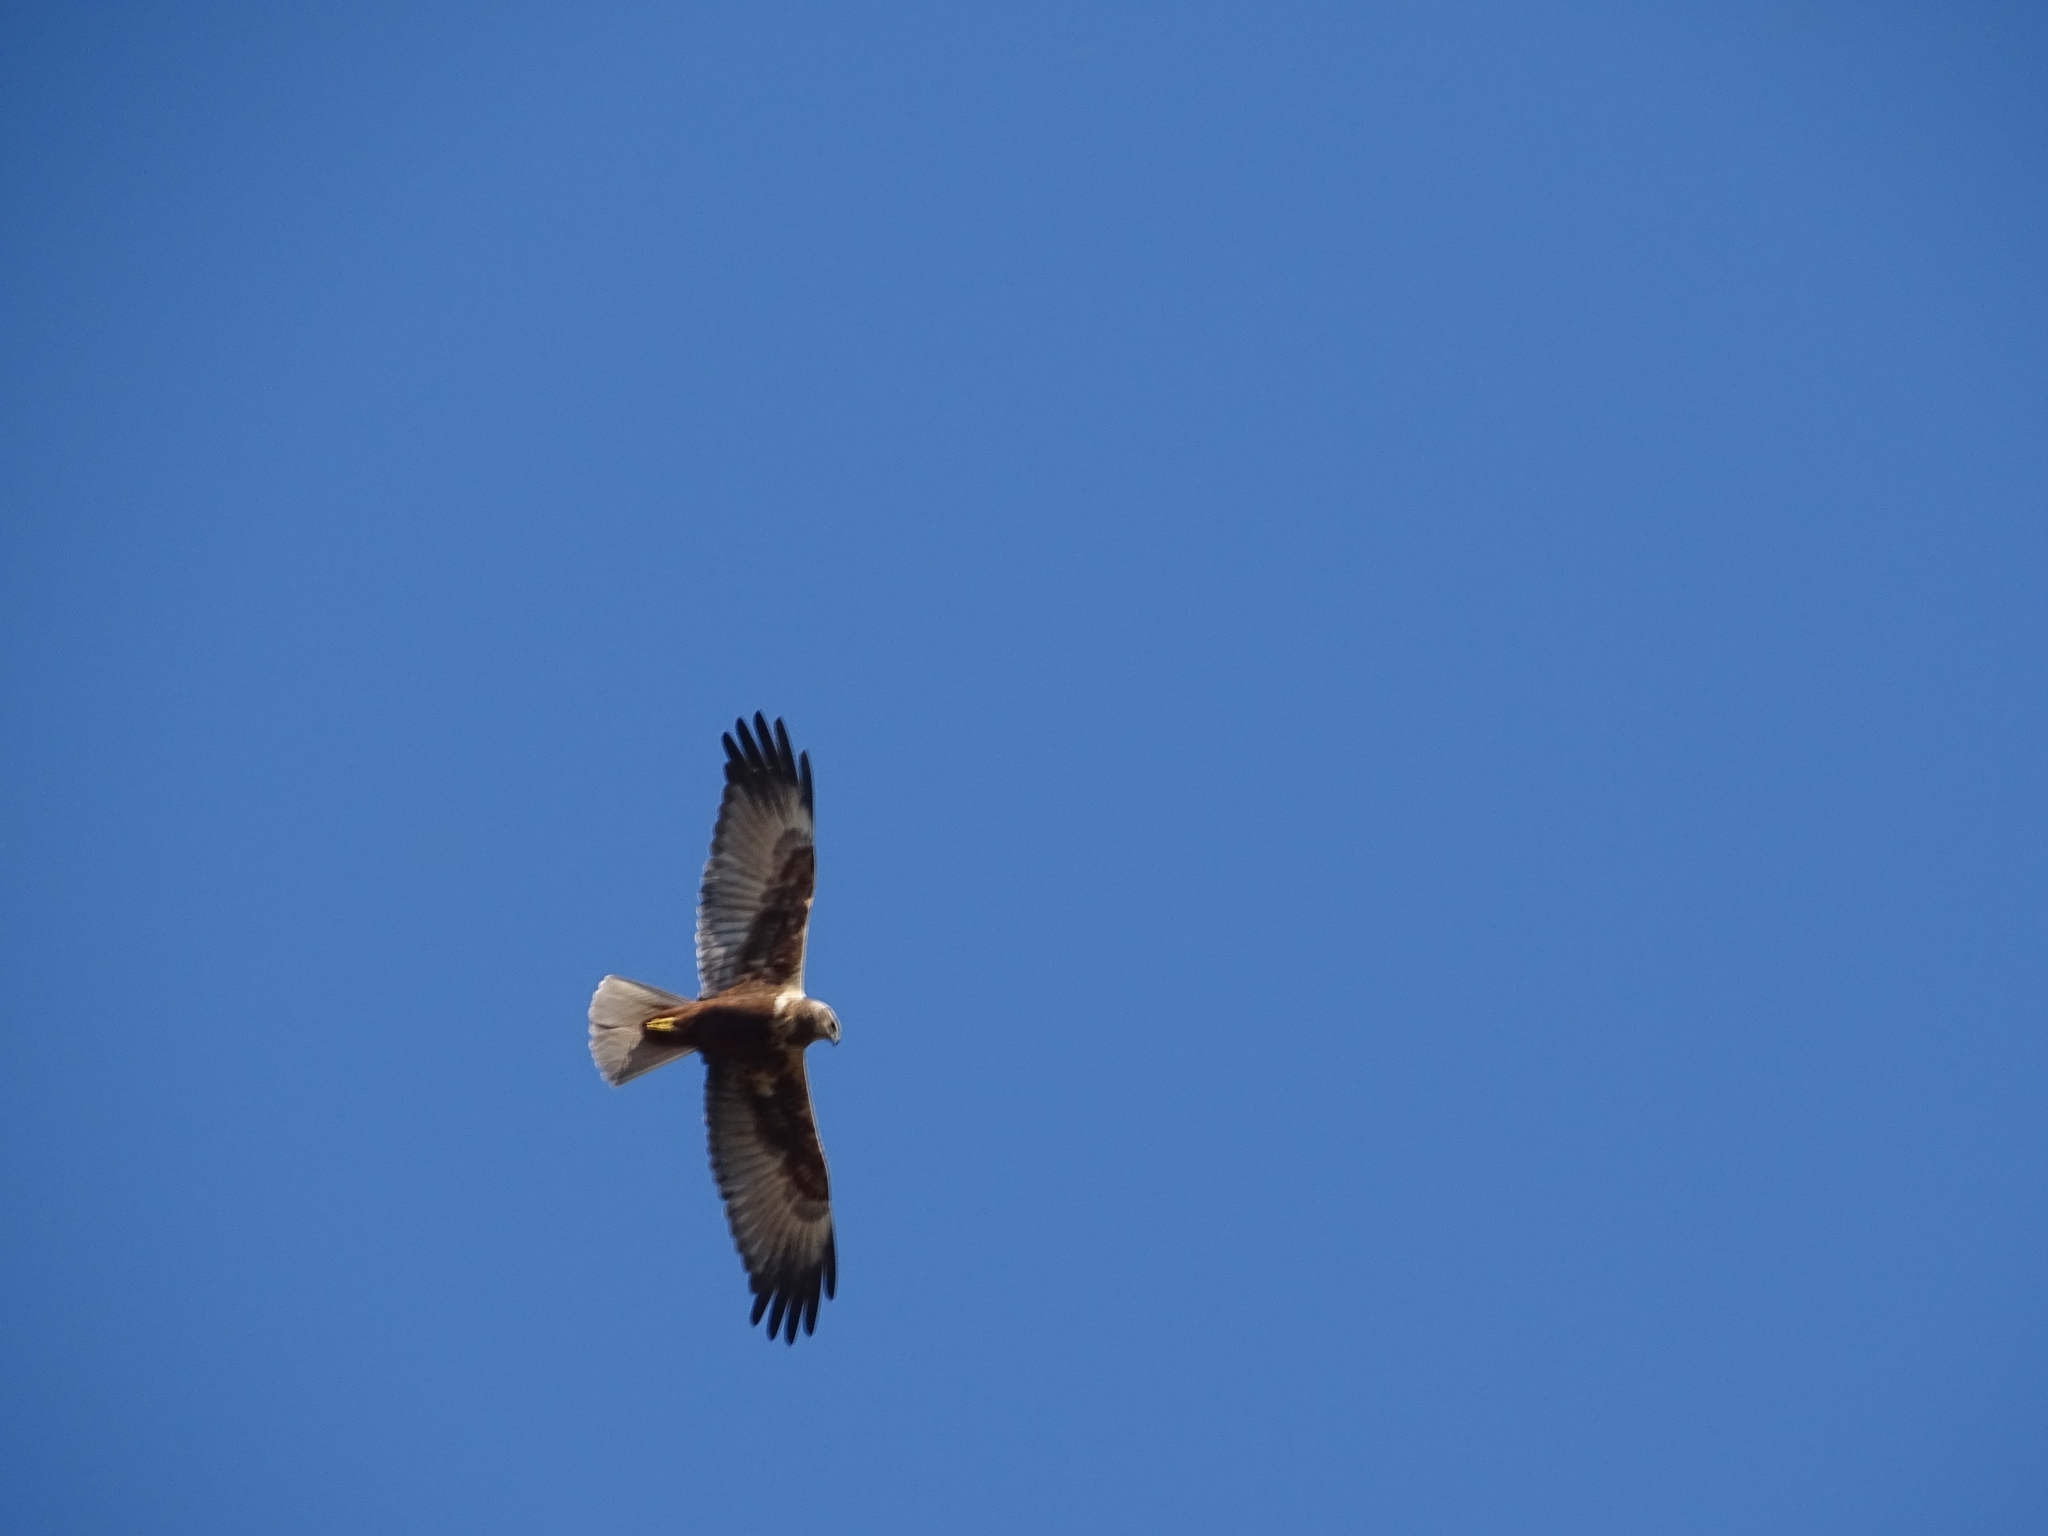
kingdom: Animalia
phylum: Chordata
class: Aves
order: Accipitriformes
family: Accipitridae
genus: Circus
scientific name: Circus aeruginosus
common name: Western marsh harrier
